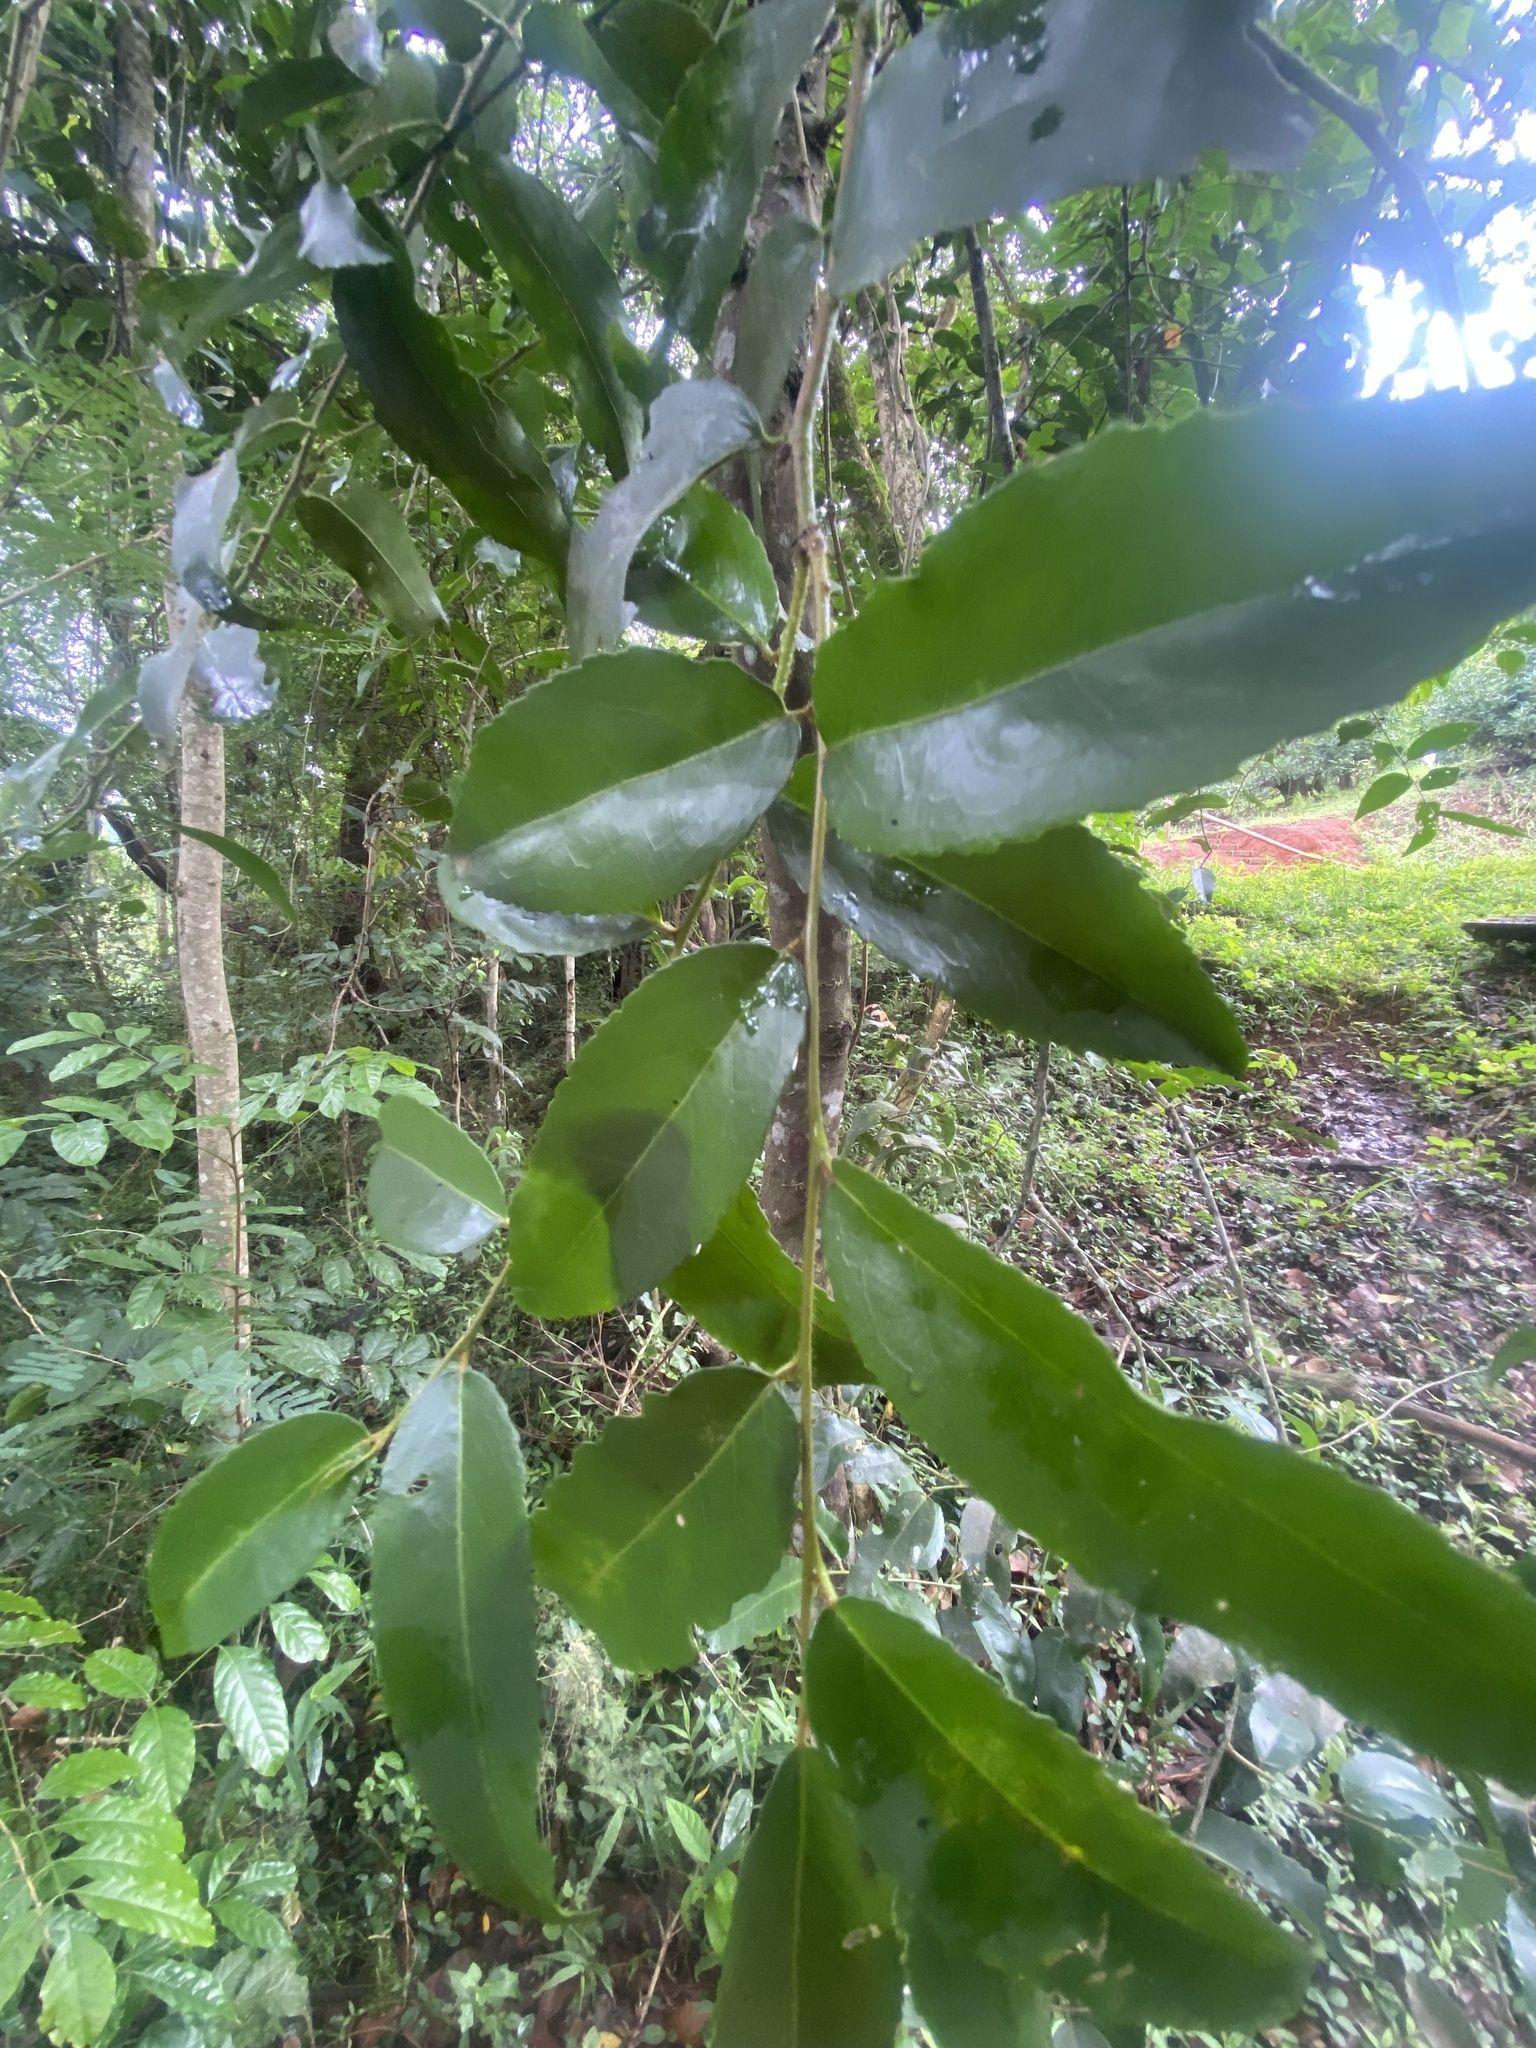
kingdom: Plantae
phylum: Tracheophyta
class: Magnoliopsida
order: Celastrales
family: Celastraceae
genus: Gymnosporia
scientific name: Gymnosporia peduncularis
